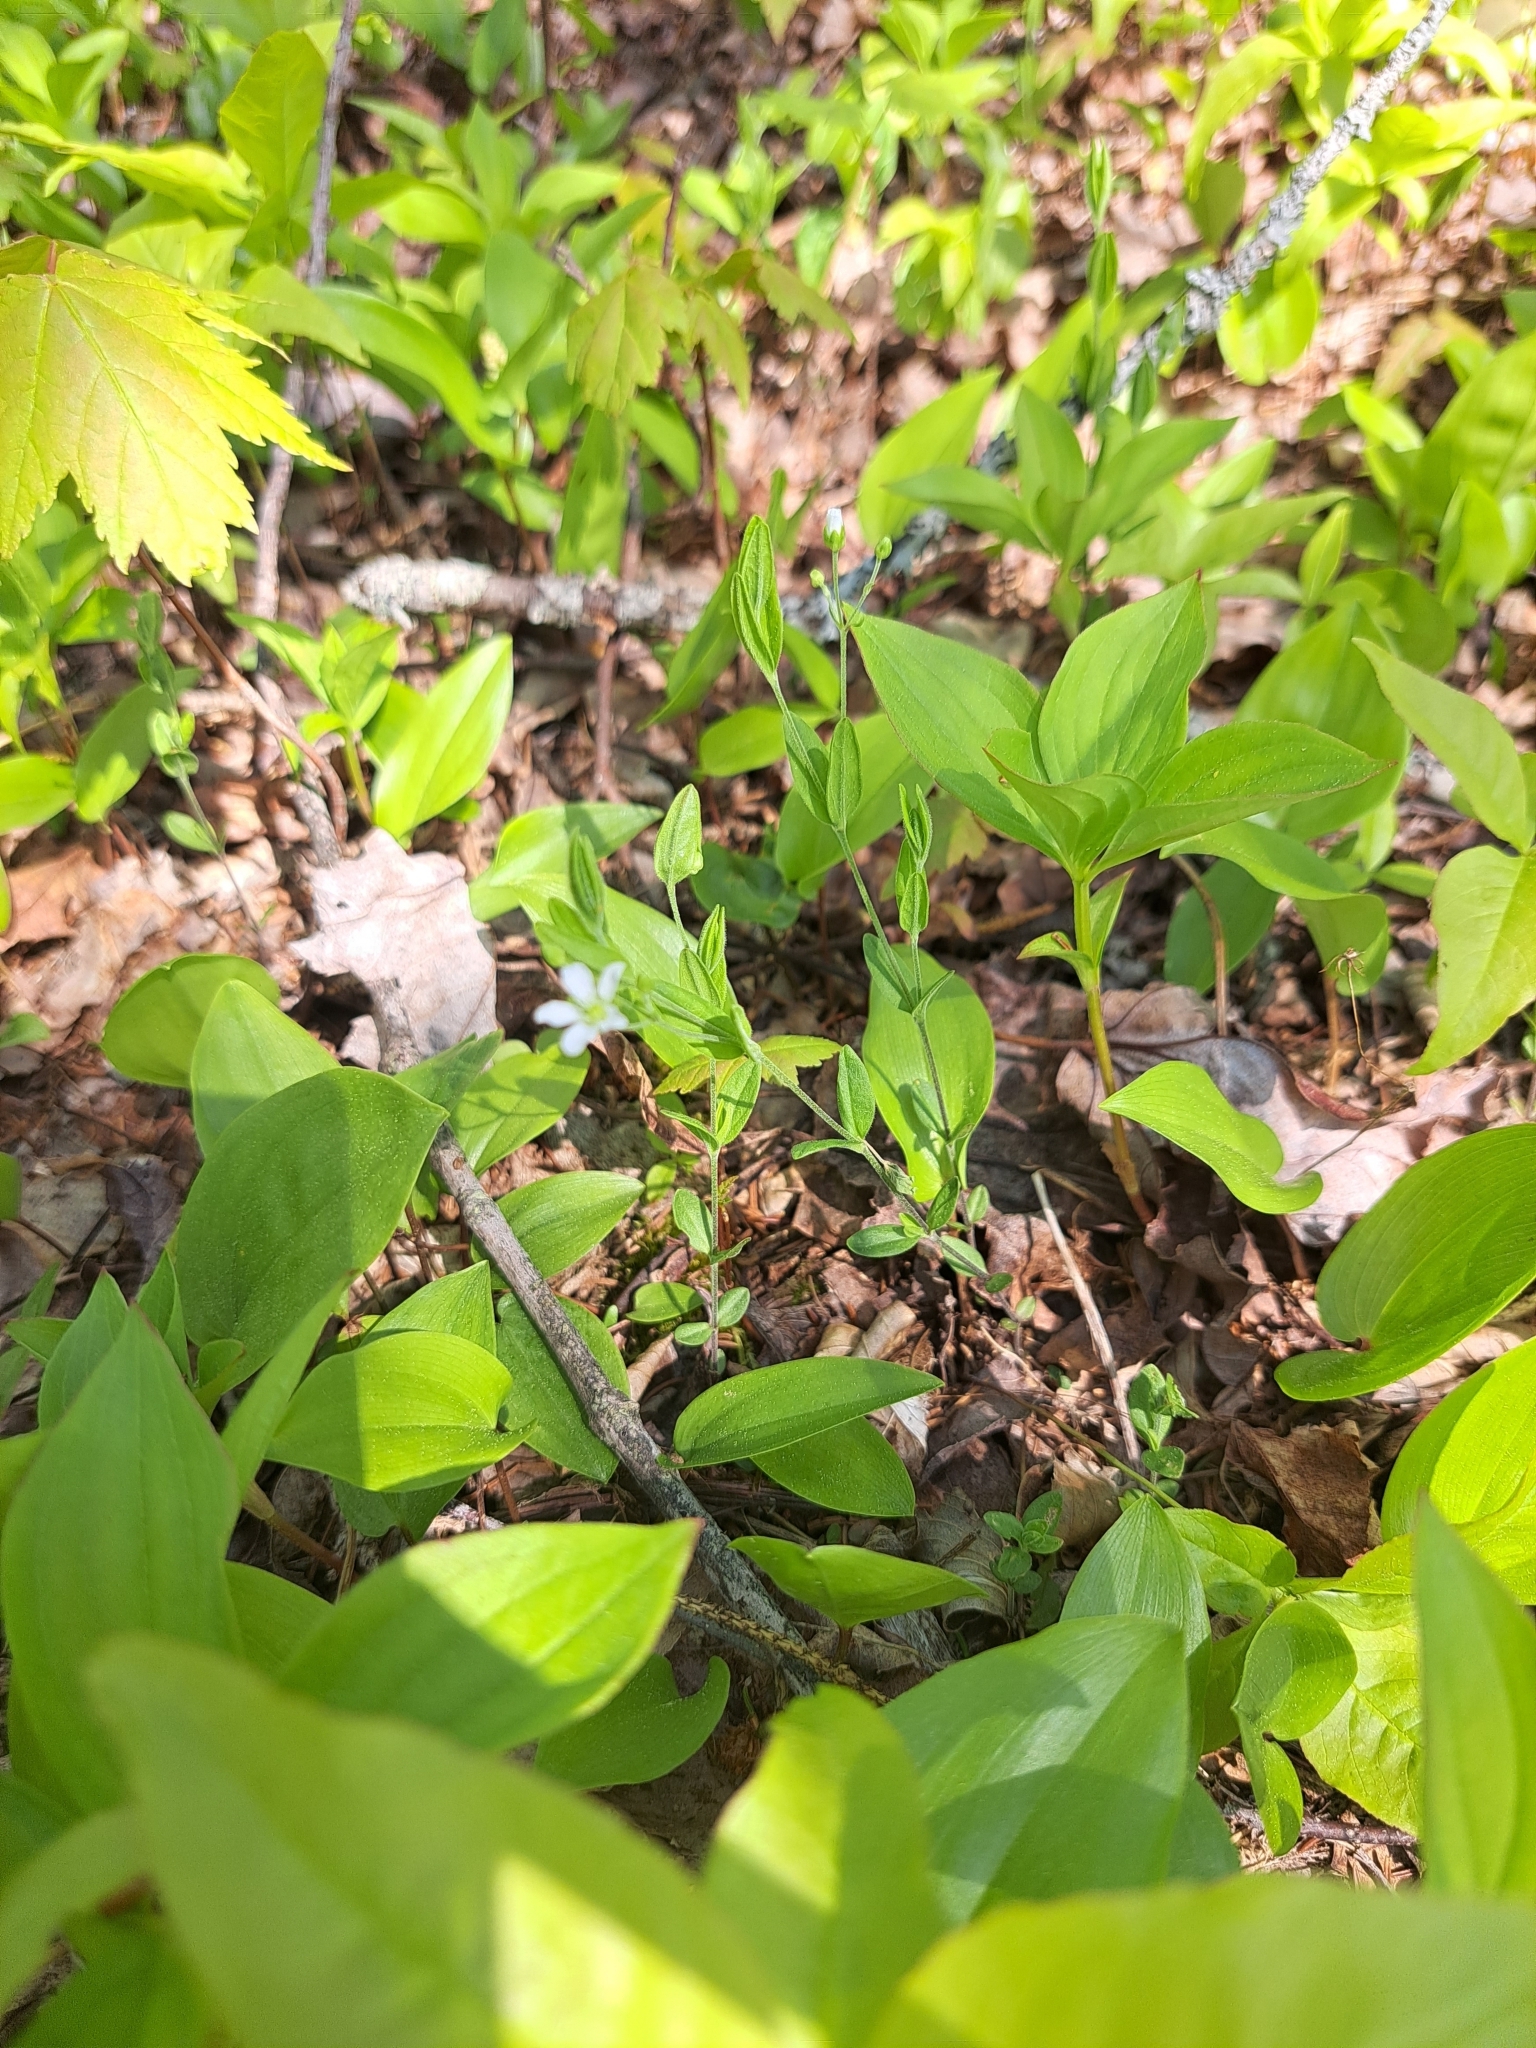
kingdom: Plantae
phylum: Tracheophyta
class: Magnoliopsida
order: Caryophyllales
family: Caryophyllaceae
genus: Moehringia
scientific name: Moehringia lateriflora
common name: Blunt-leaved sandwort
